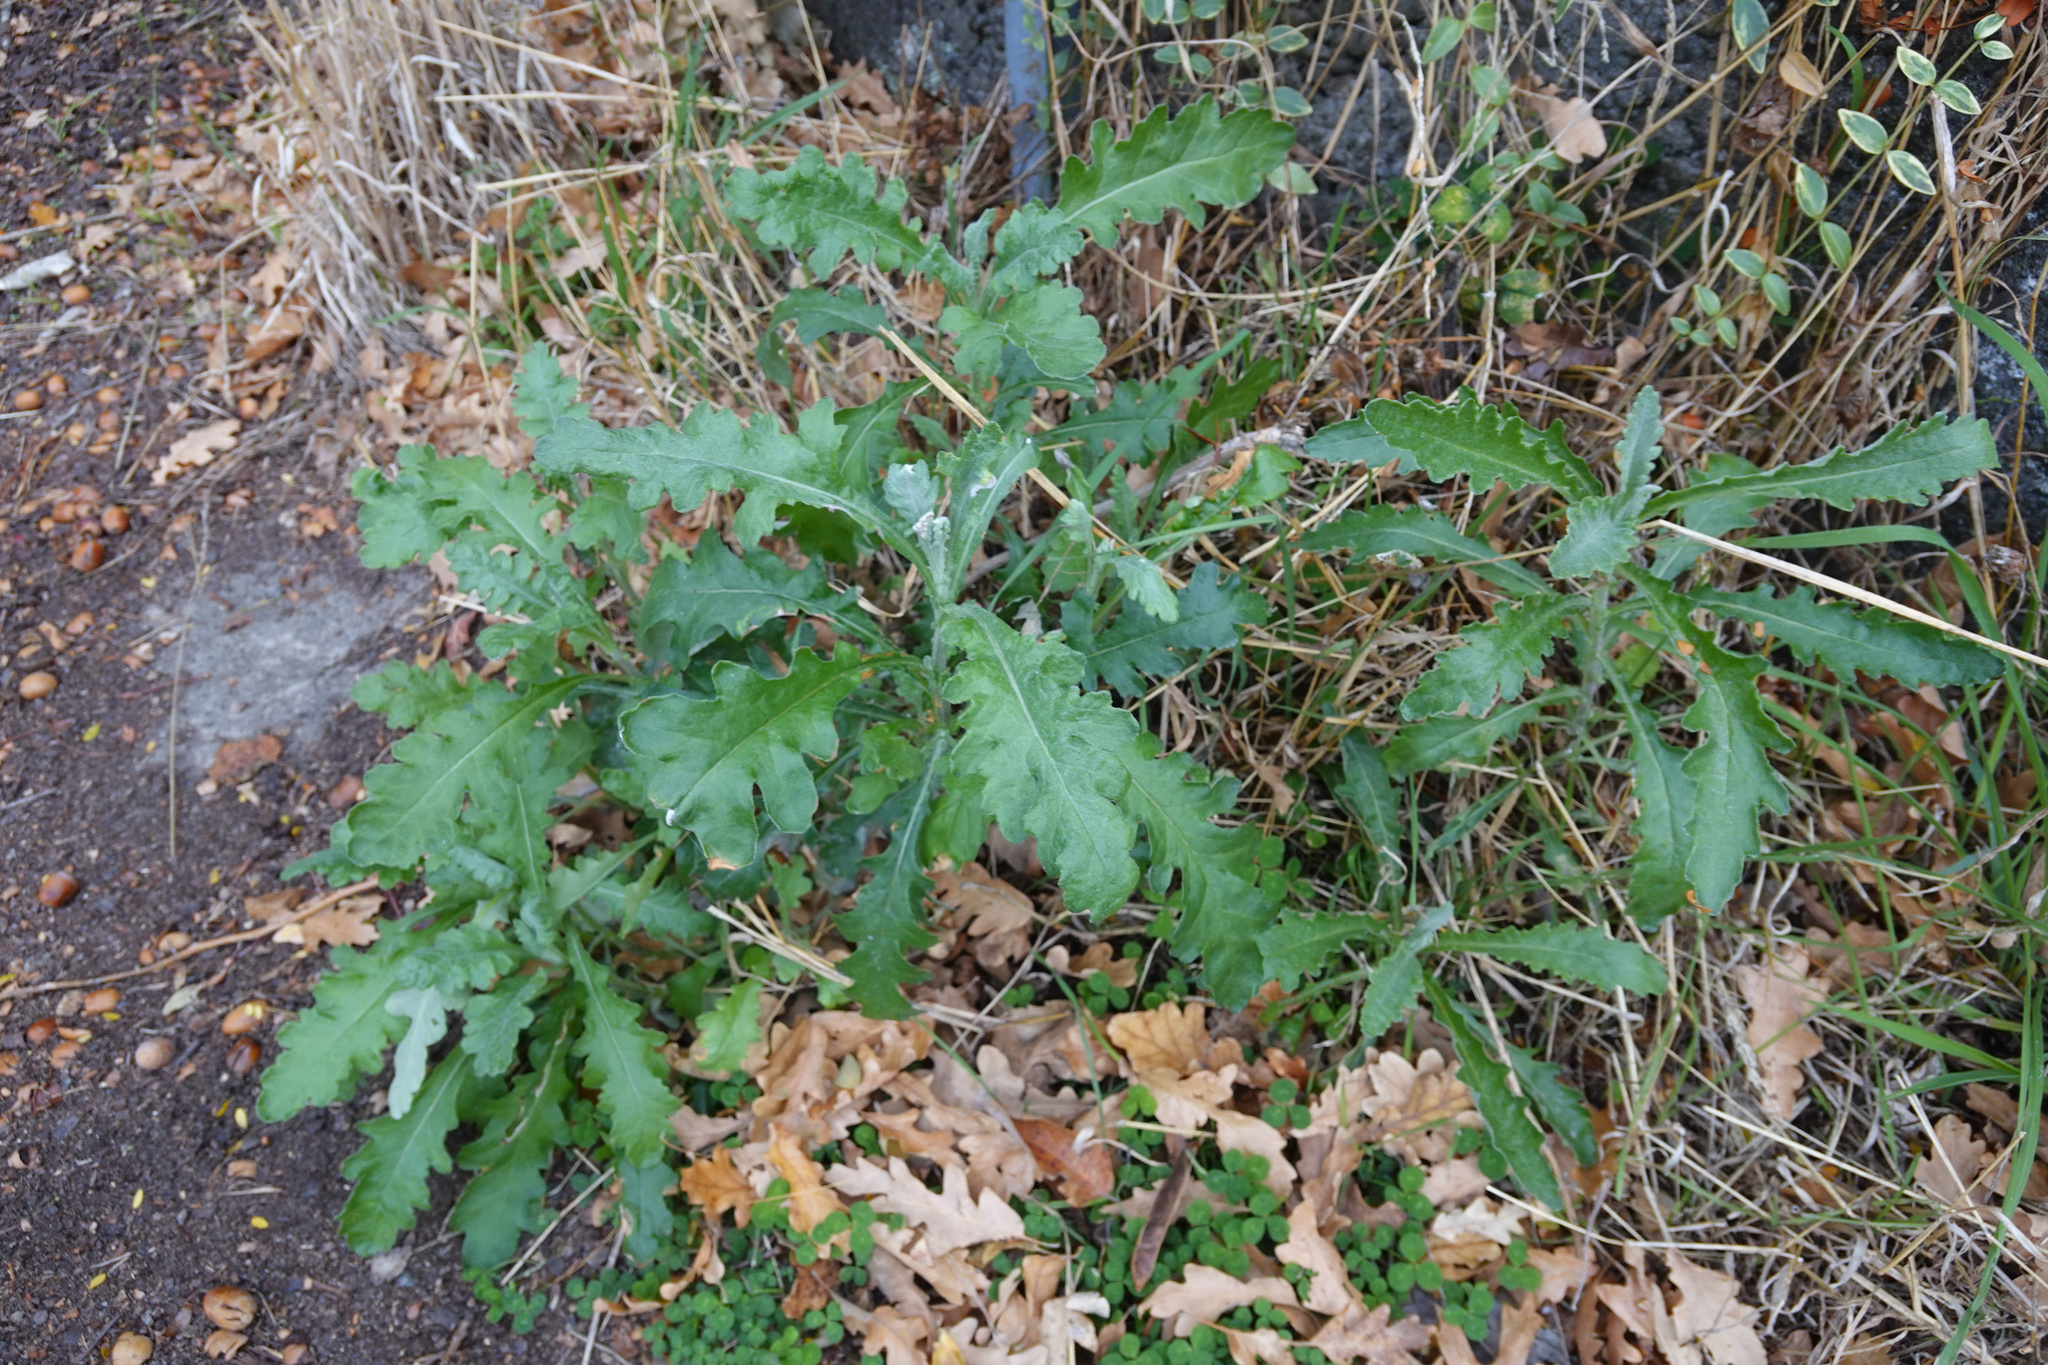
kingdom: Plantae
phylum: Tracheophyta
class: Magnoliopsida
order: Asterales
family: Asteraceae
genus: Senecio
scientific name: Senecio glomeratus
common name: Cutleaf burnweed
